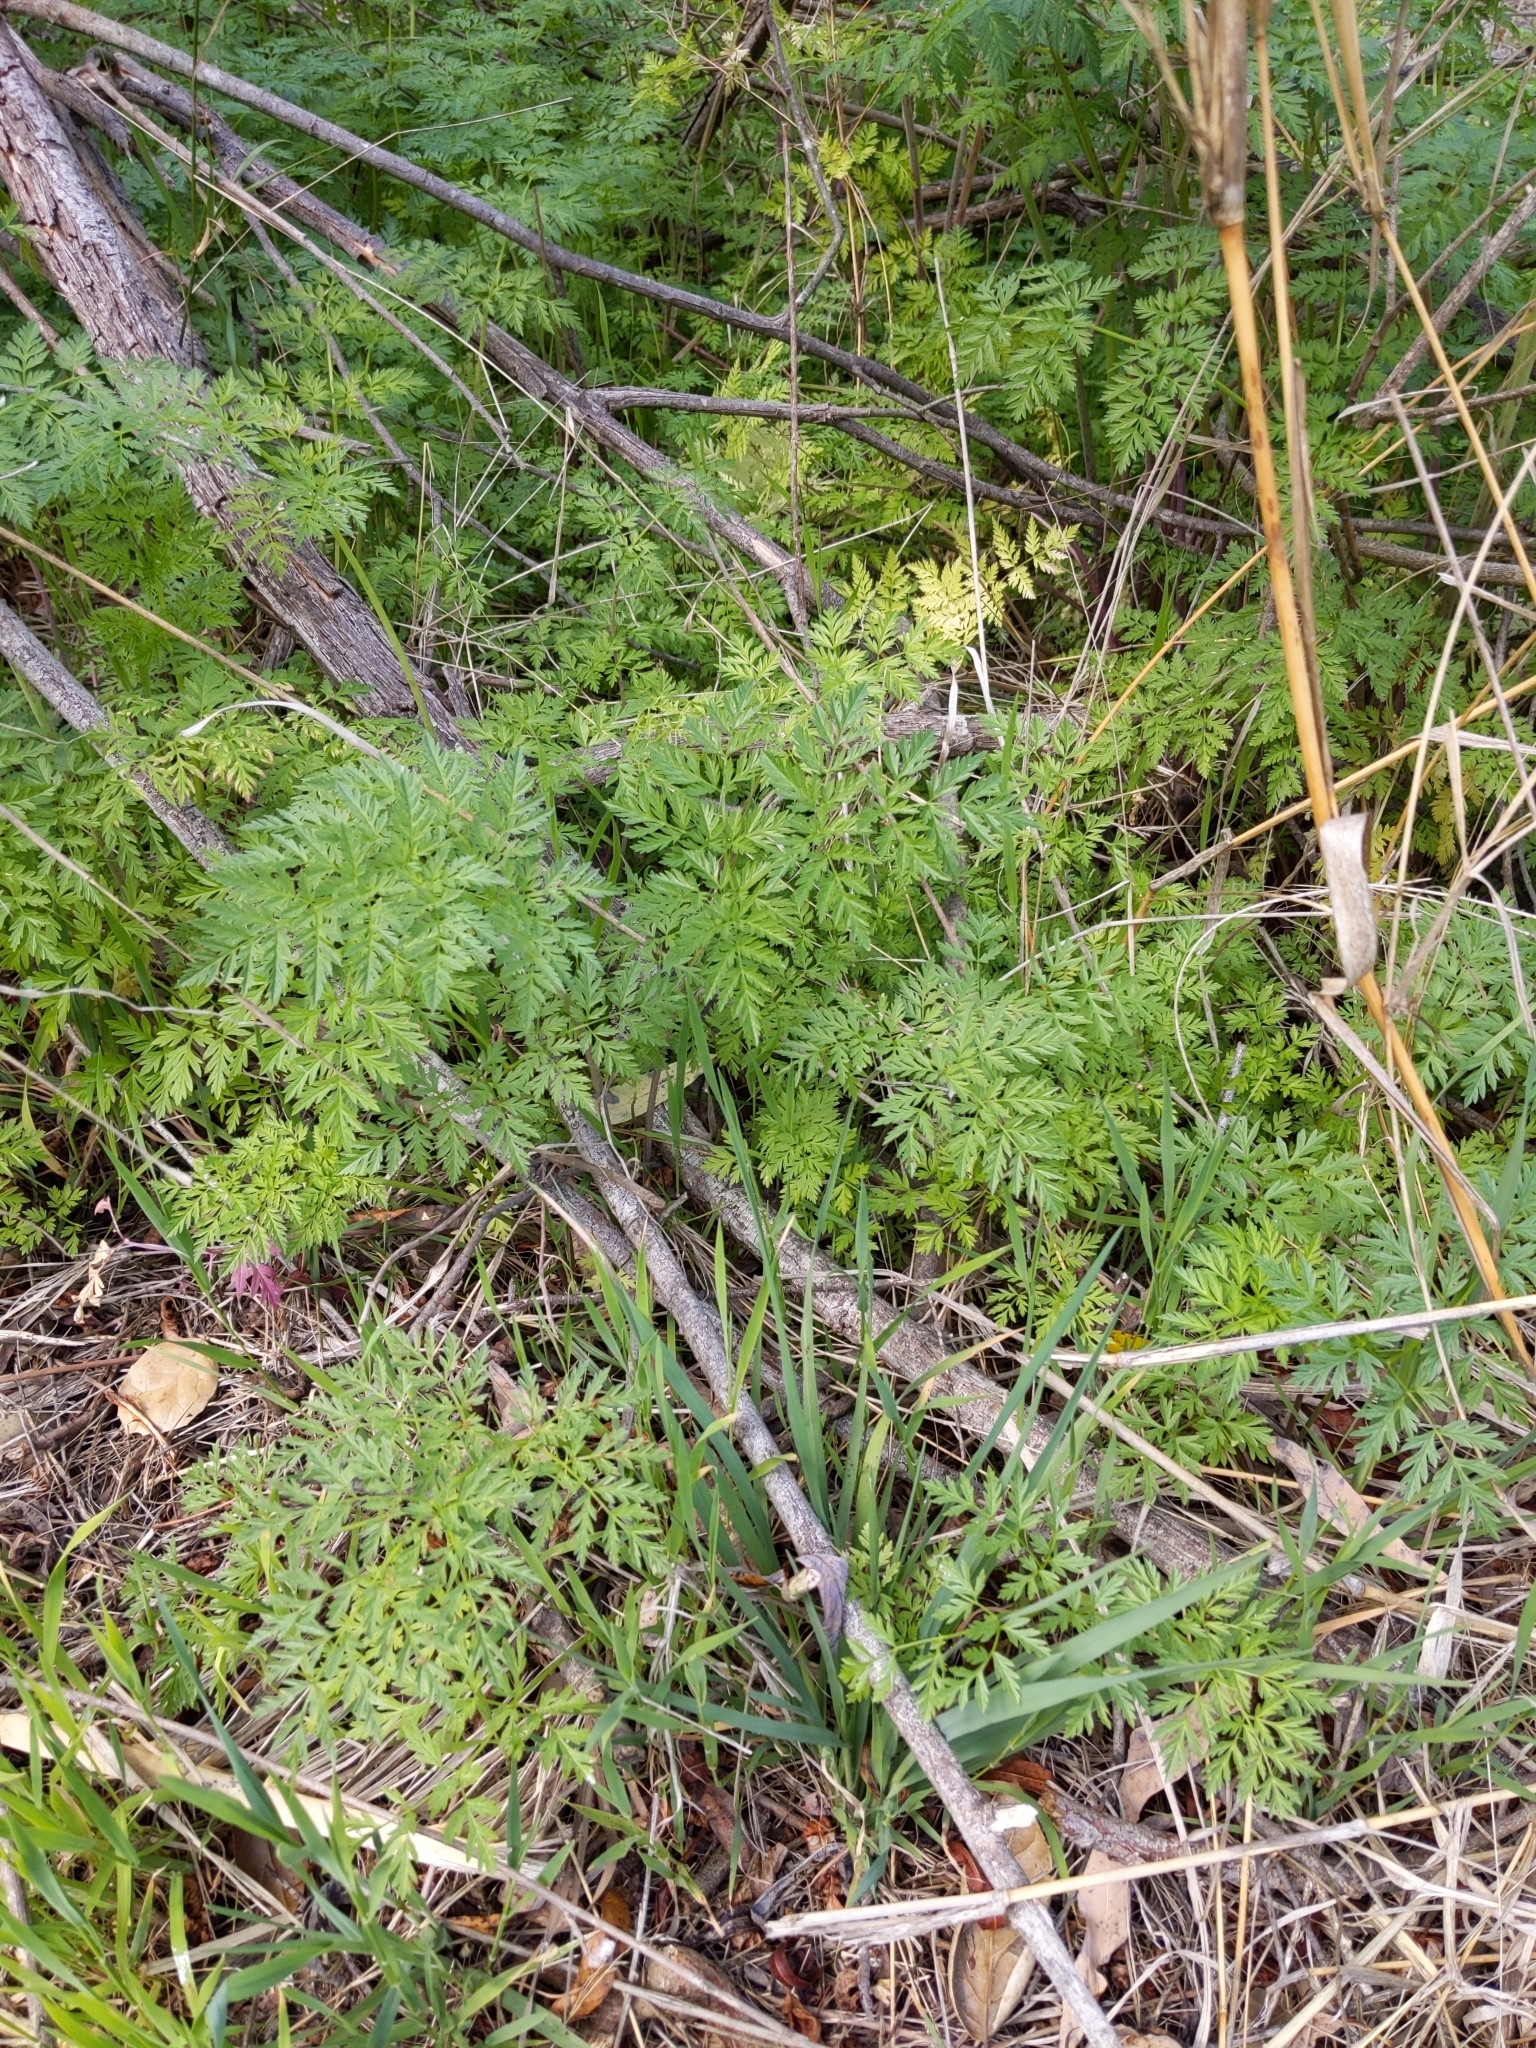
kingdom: Plantae
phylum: Tracheophyta
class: Magnoliopsida
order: Apiales
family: Apiaceae
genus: Conium
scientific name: Conium maculatum
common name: Hemlock
